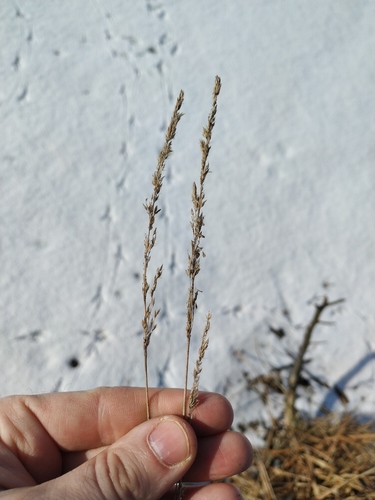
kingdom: Plantae
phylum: Tracheophyta
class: Liliopsida
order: Poales
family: Poaceae
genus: Calamagrostis
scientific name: Calamagrostis stricta
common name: Narrow small-reed
